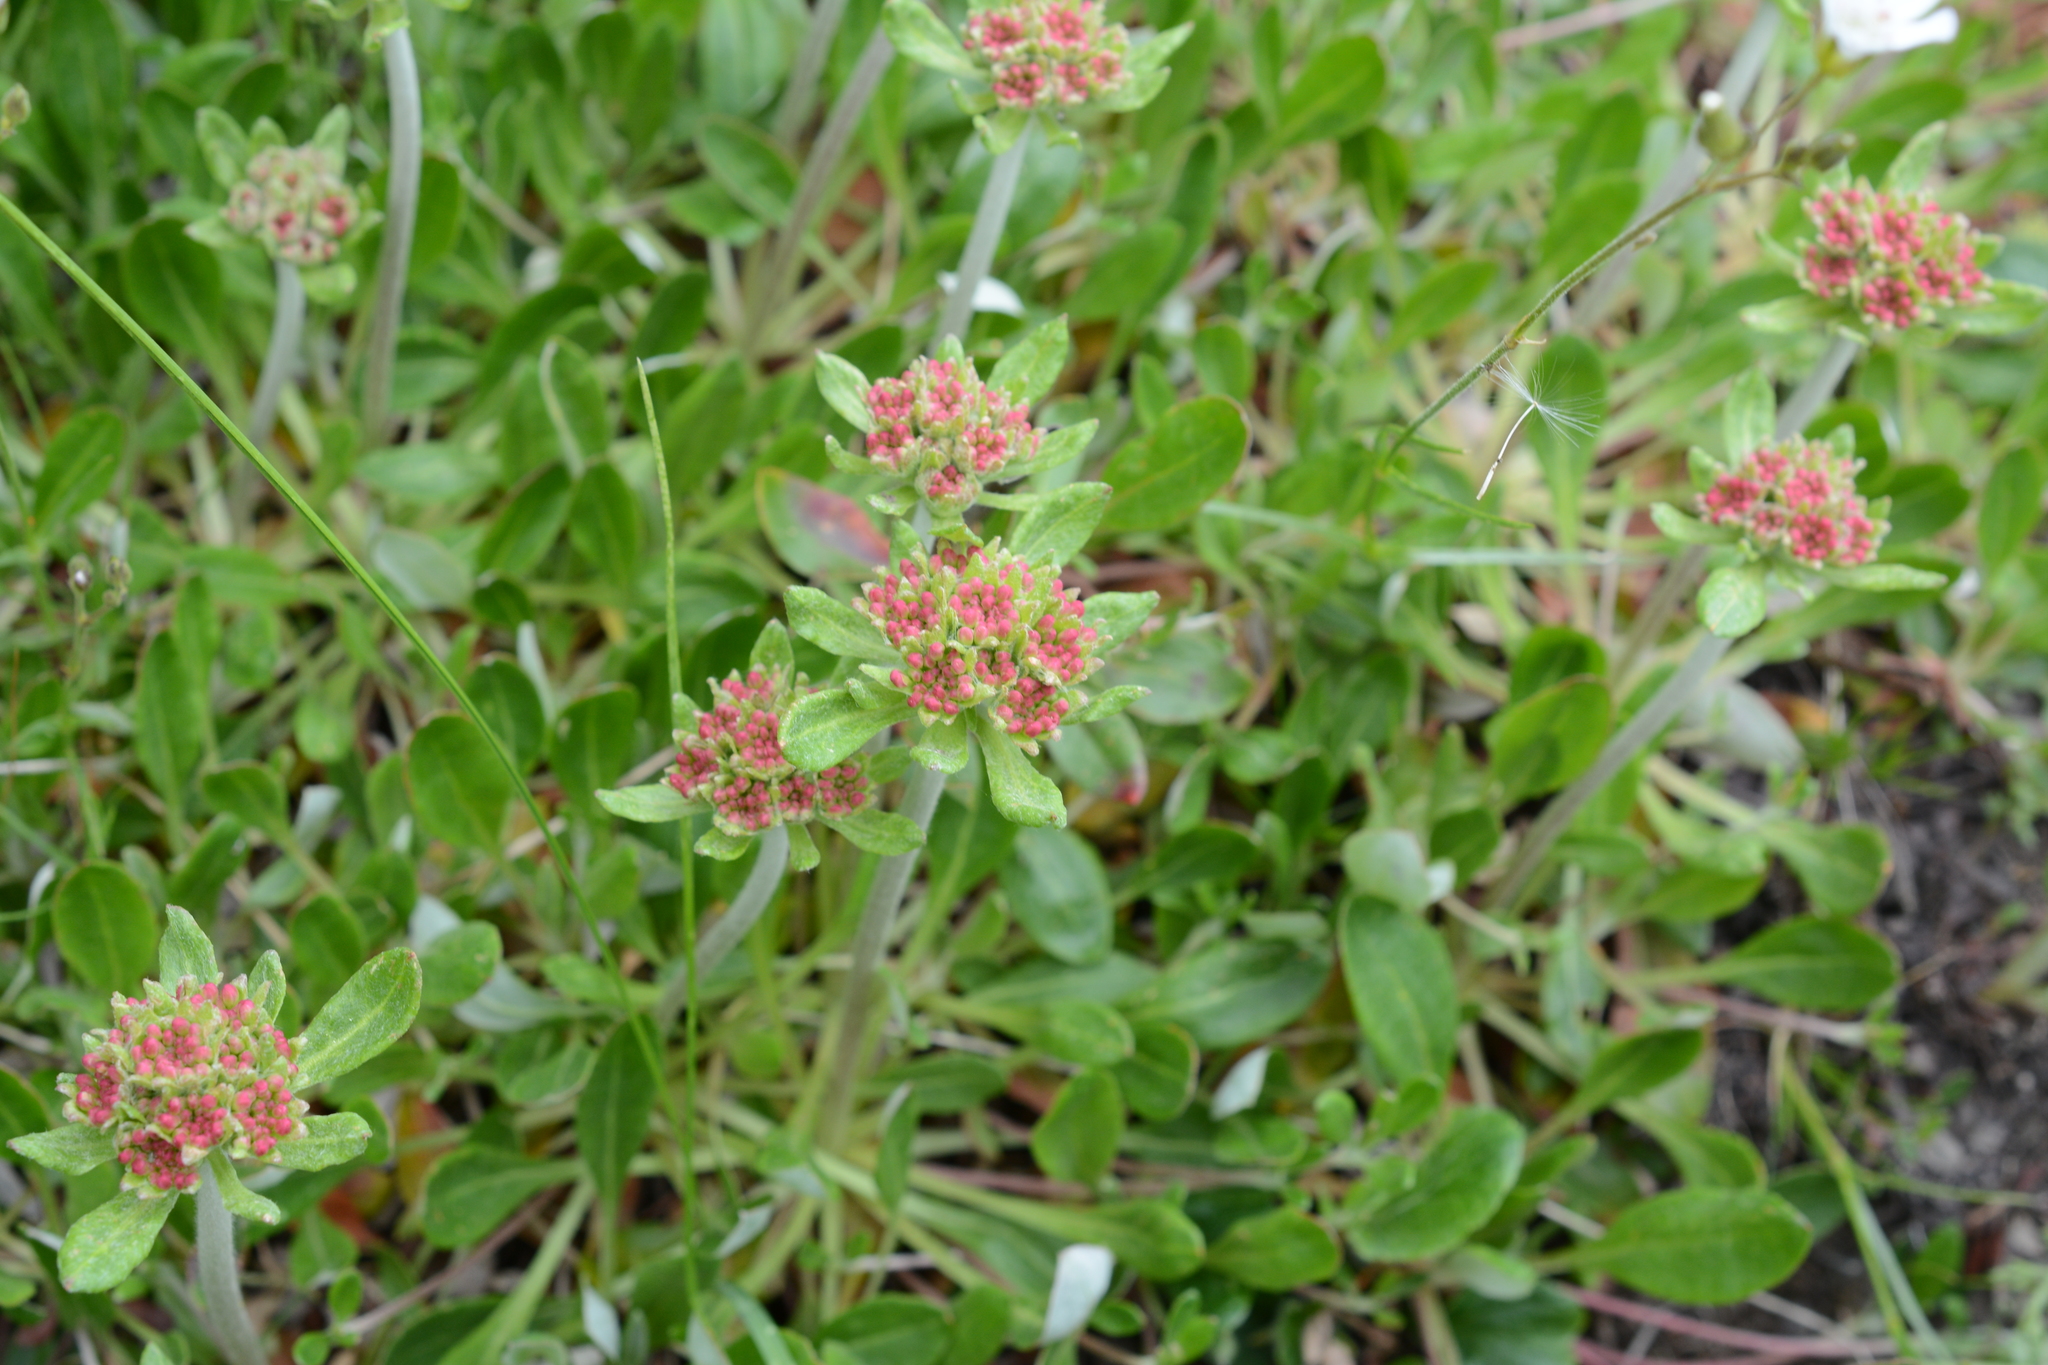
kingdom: Plantae
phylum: Tracheophyta
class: Magnoliopsida
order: Caryophyllales
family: Polygonaceae
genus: Eriogonum
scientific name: Eriogonum umbellatum
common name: Sulfur-buckwheat
